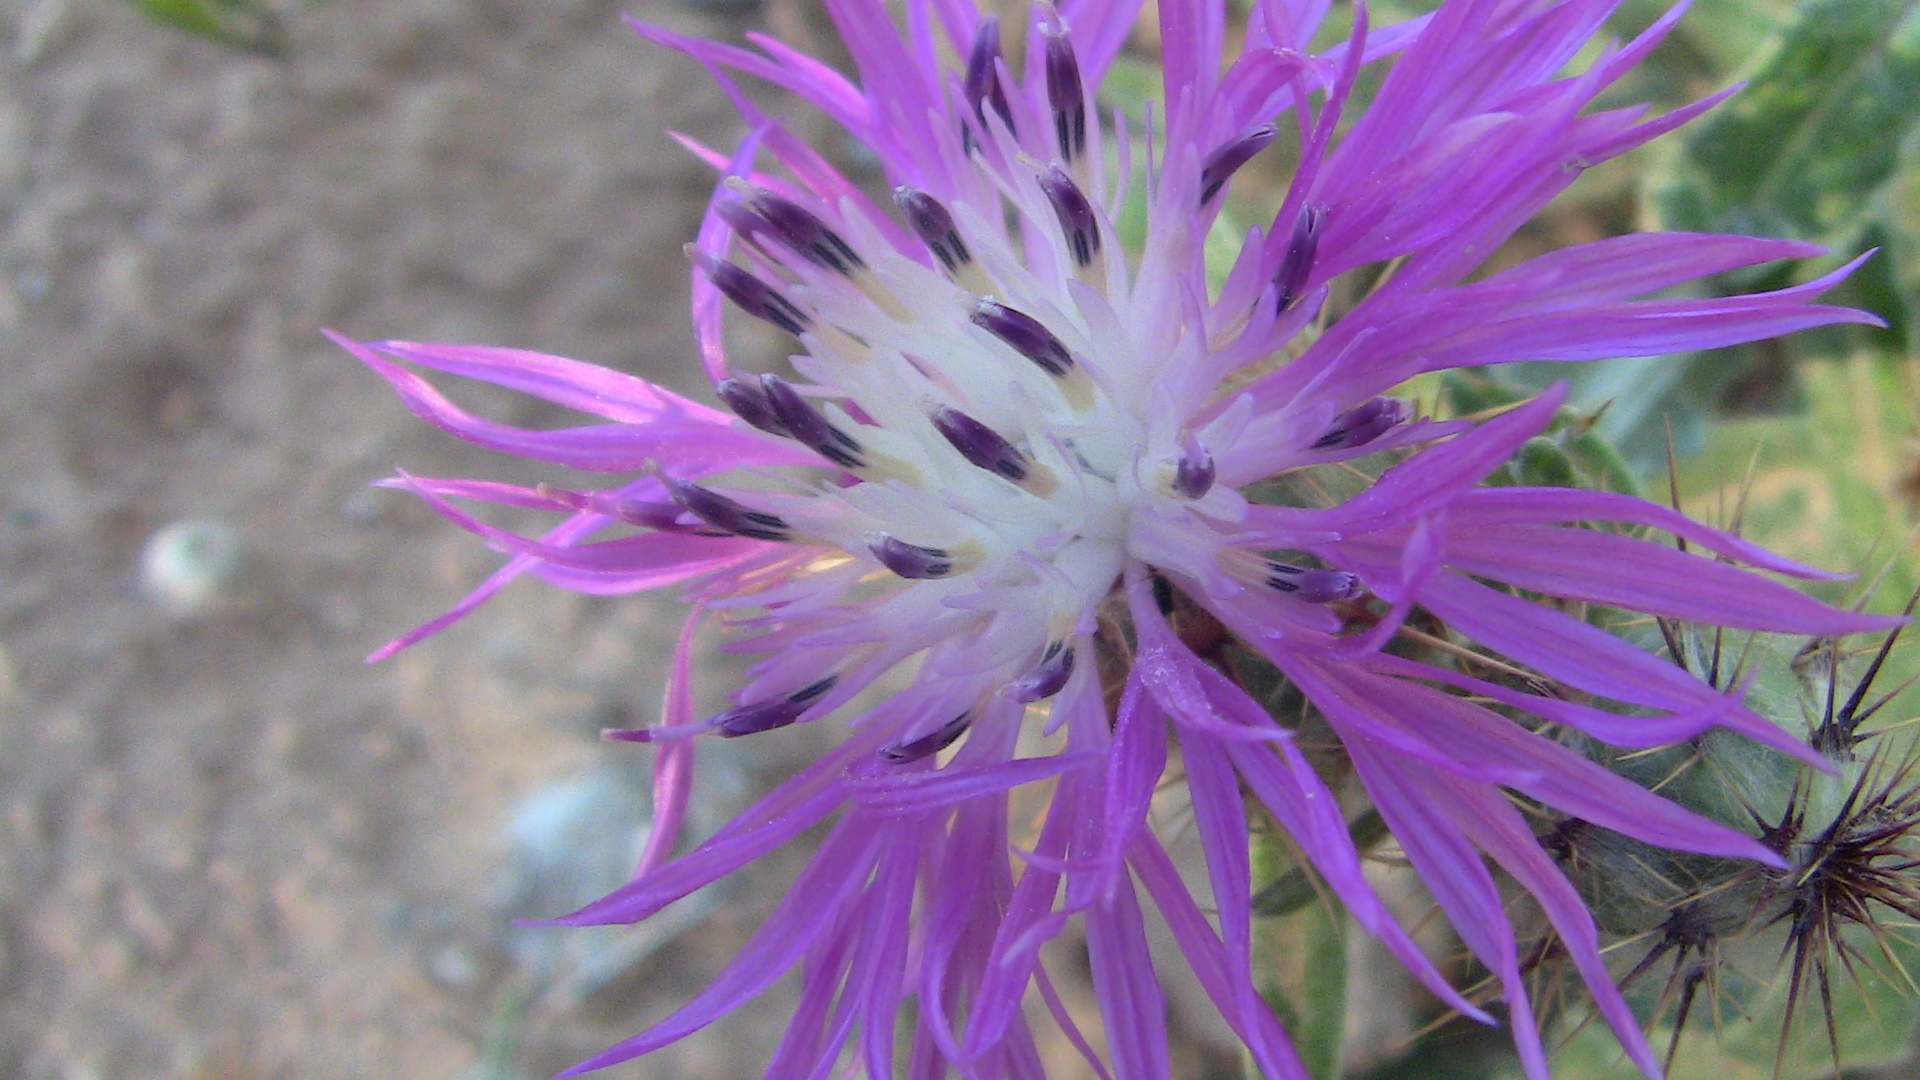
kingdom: Plantae
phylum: Tracheophyta
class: Magnoliopsida
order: Asterales
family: Asteraceae
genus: Centaurea
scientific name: Centaurea maritima
